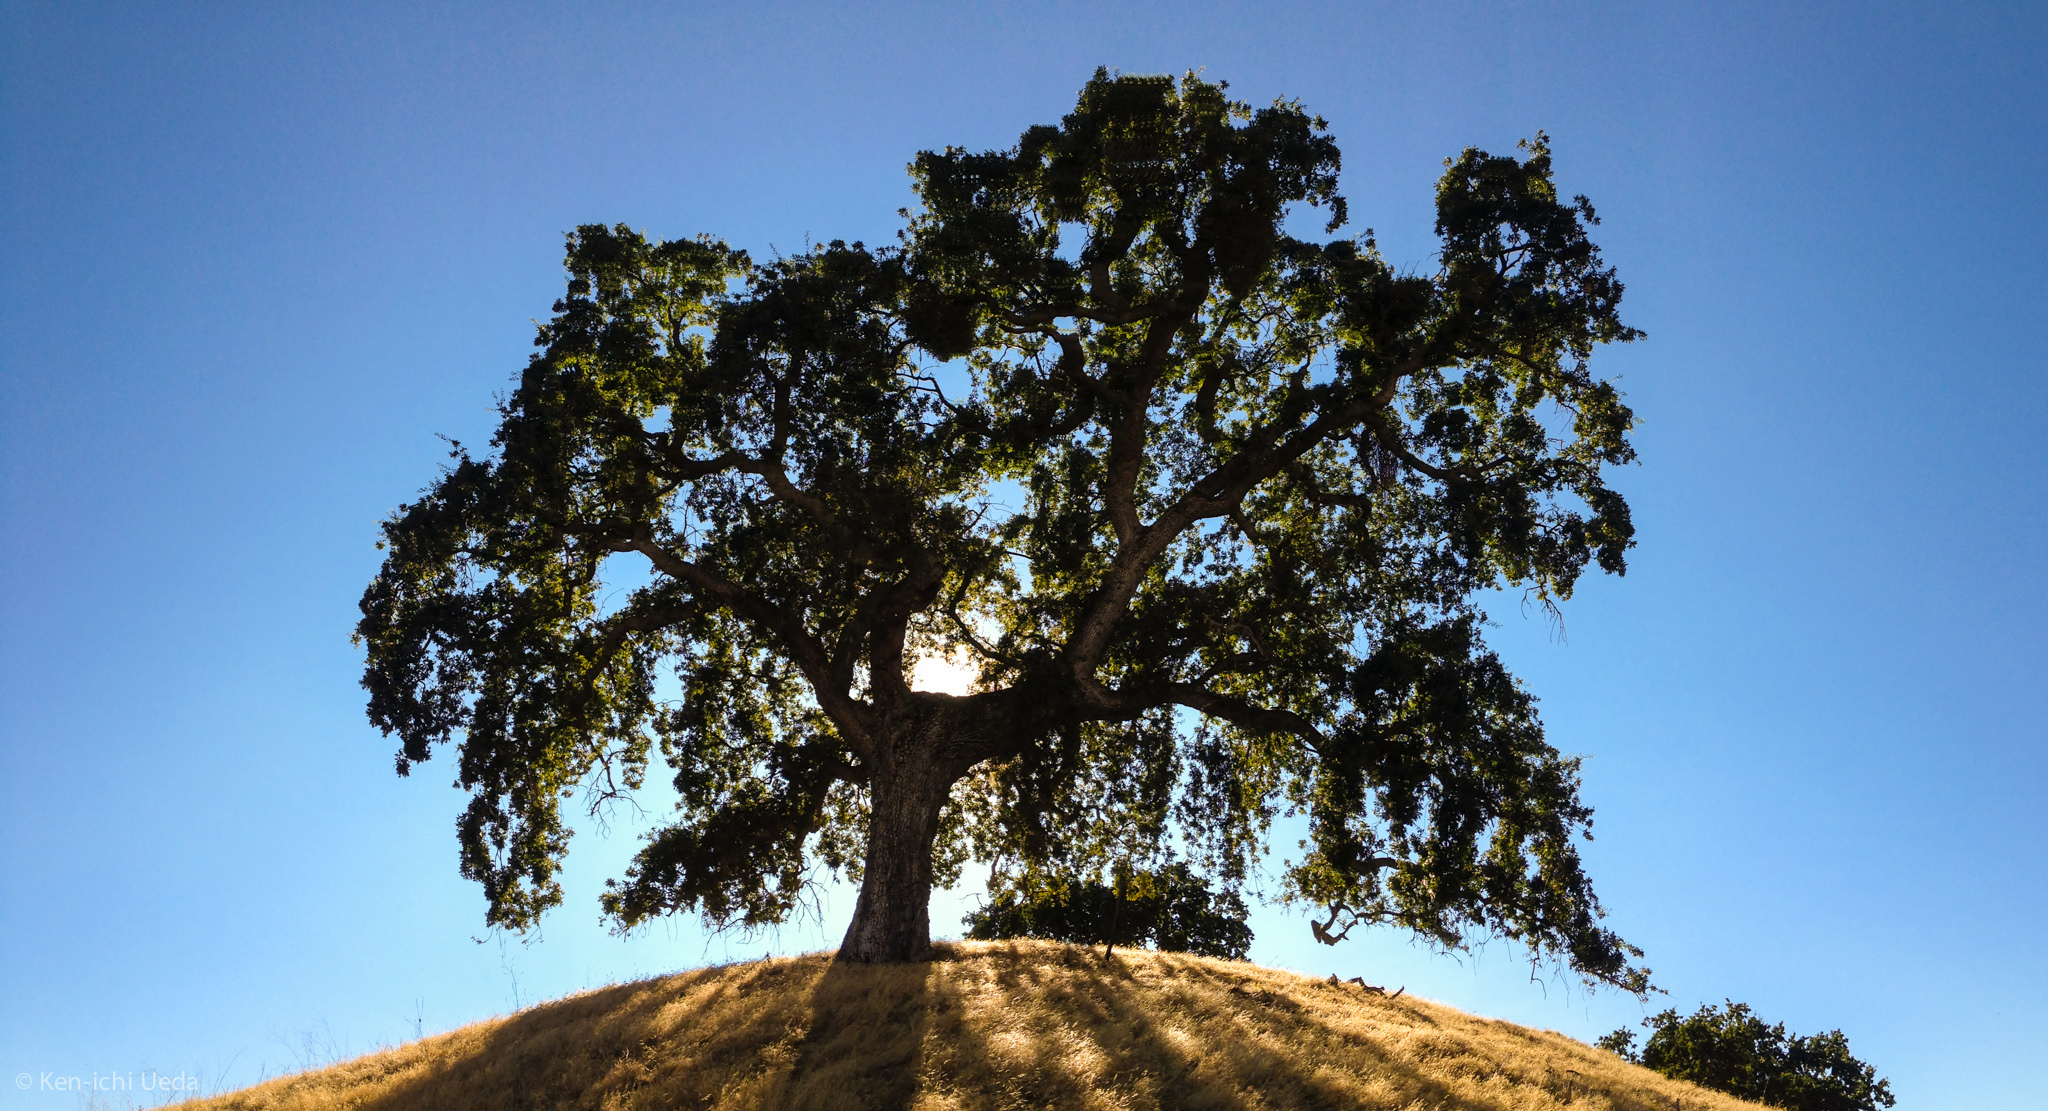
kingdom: Plantae
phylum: Tracheophyta
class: Magnoliopsida
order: Fagales
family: Fagaceae
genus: Quercus
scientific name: Quercus lobata
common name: Valley oak
